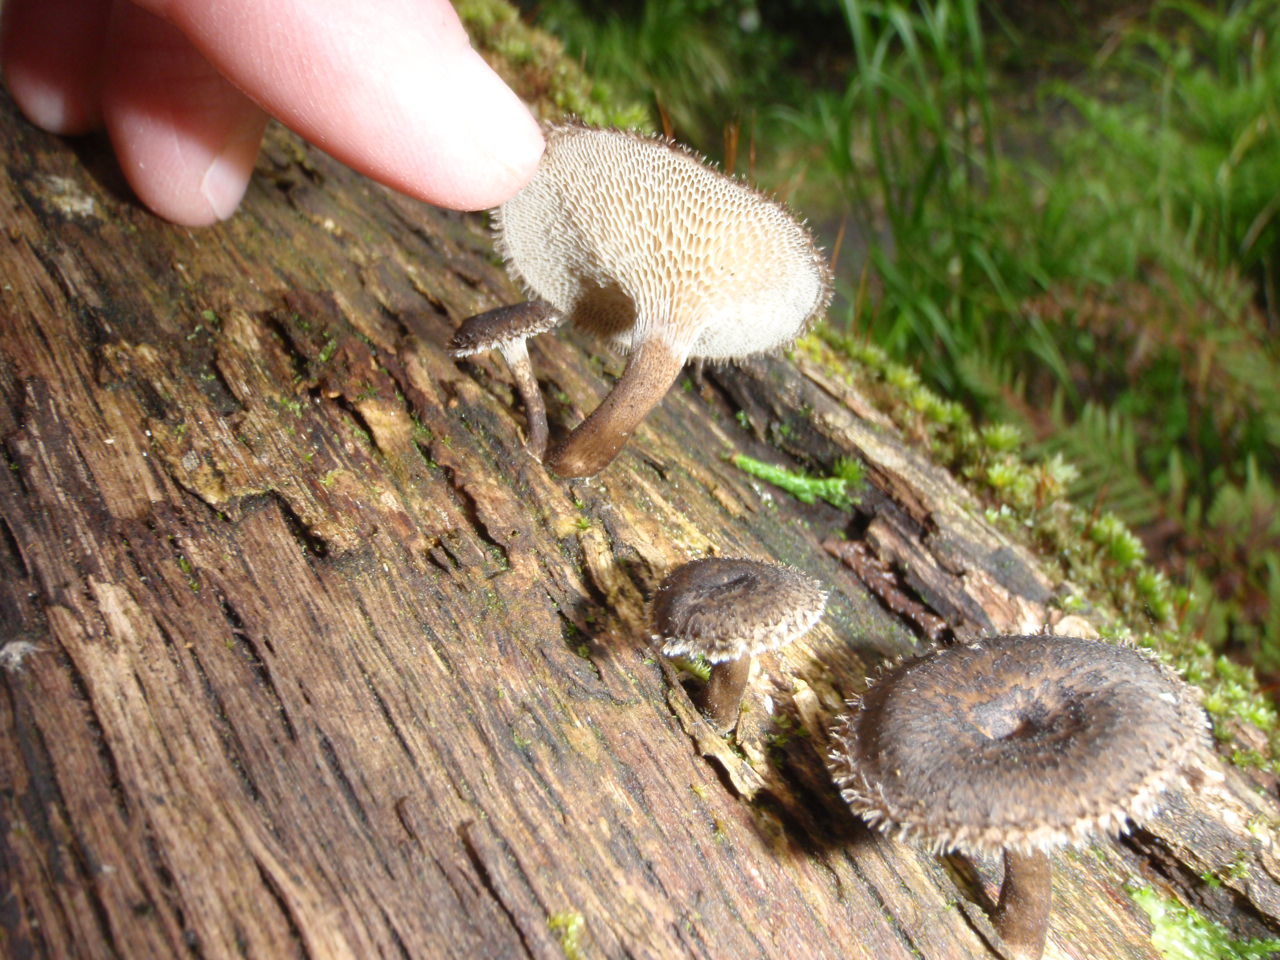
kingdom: Fungi
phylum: Basidiomycota
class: Agaricomycetes
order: Polyporales
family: Polyporaceae
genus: Lentinus
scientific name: Lentinus arcularius
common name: Spring polypore
